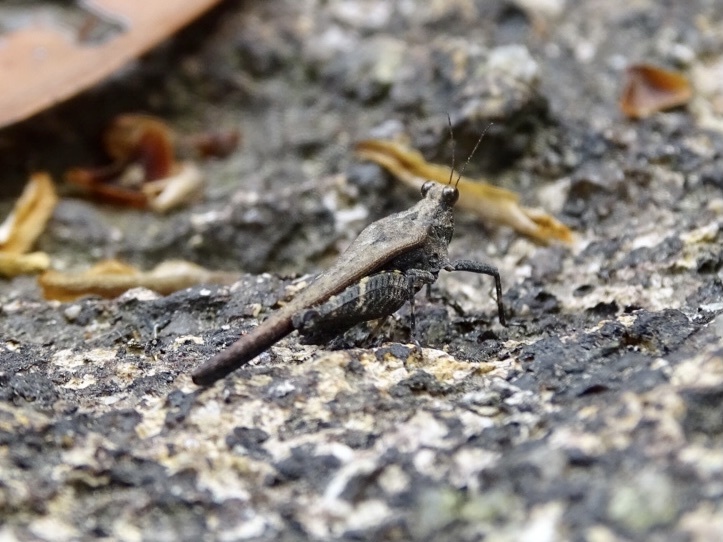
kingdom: Animalia
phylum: Arthropoda
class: Insecta
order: Orthoptera
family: Tetrigidae
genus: Criotettix
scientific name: Criotettix bispinosus
